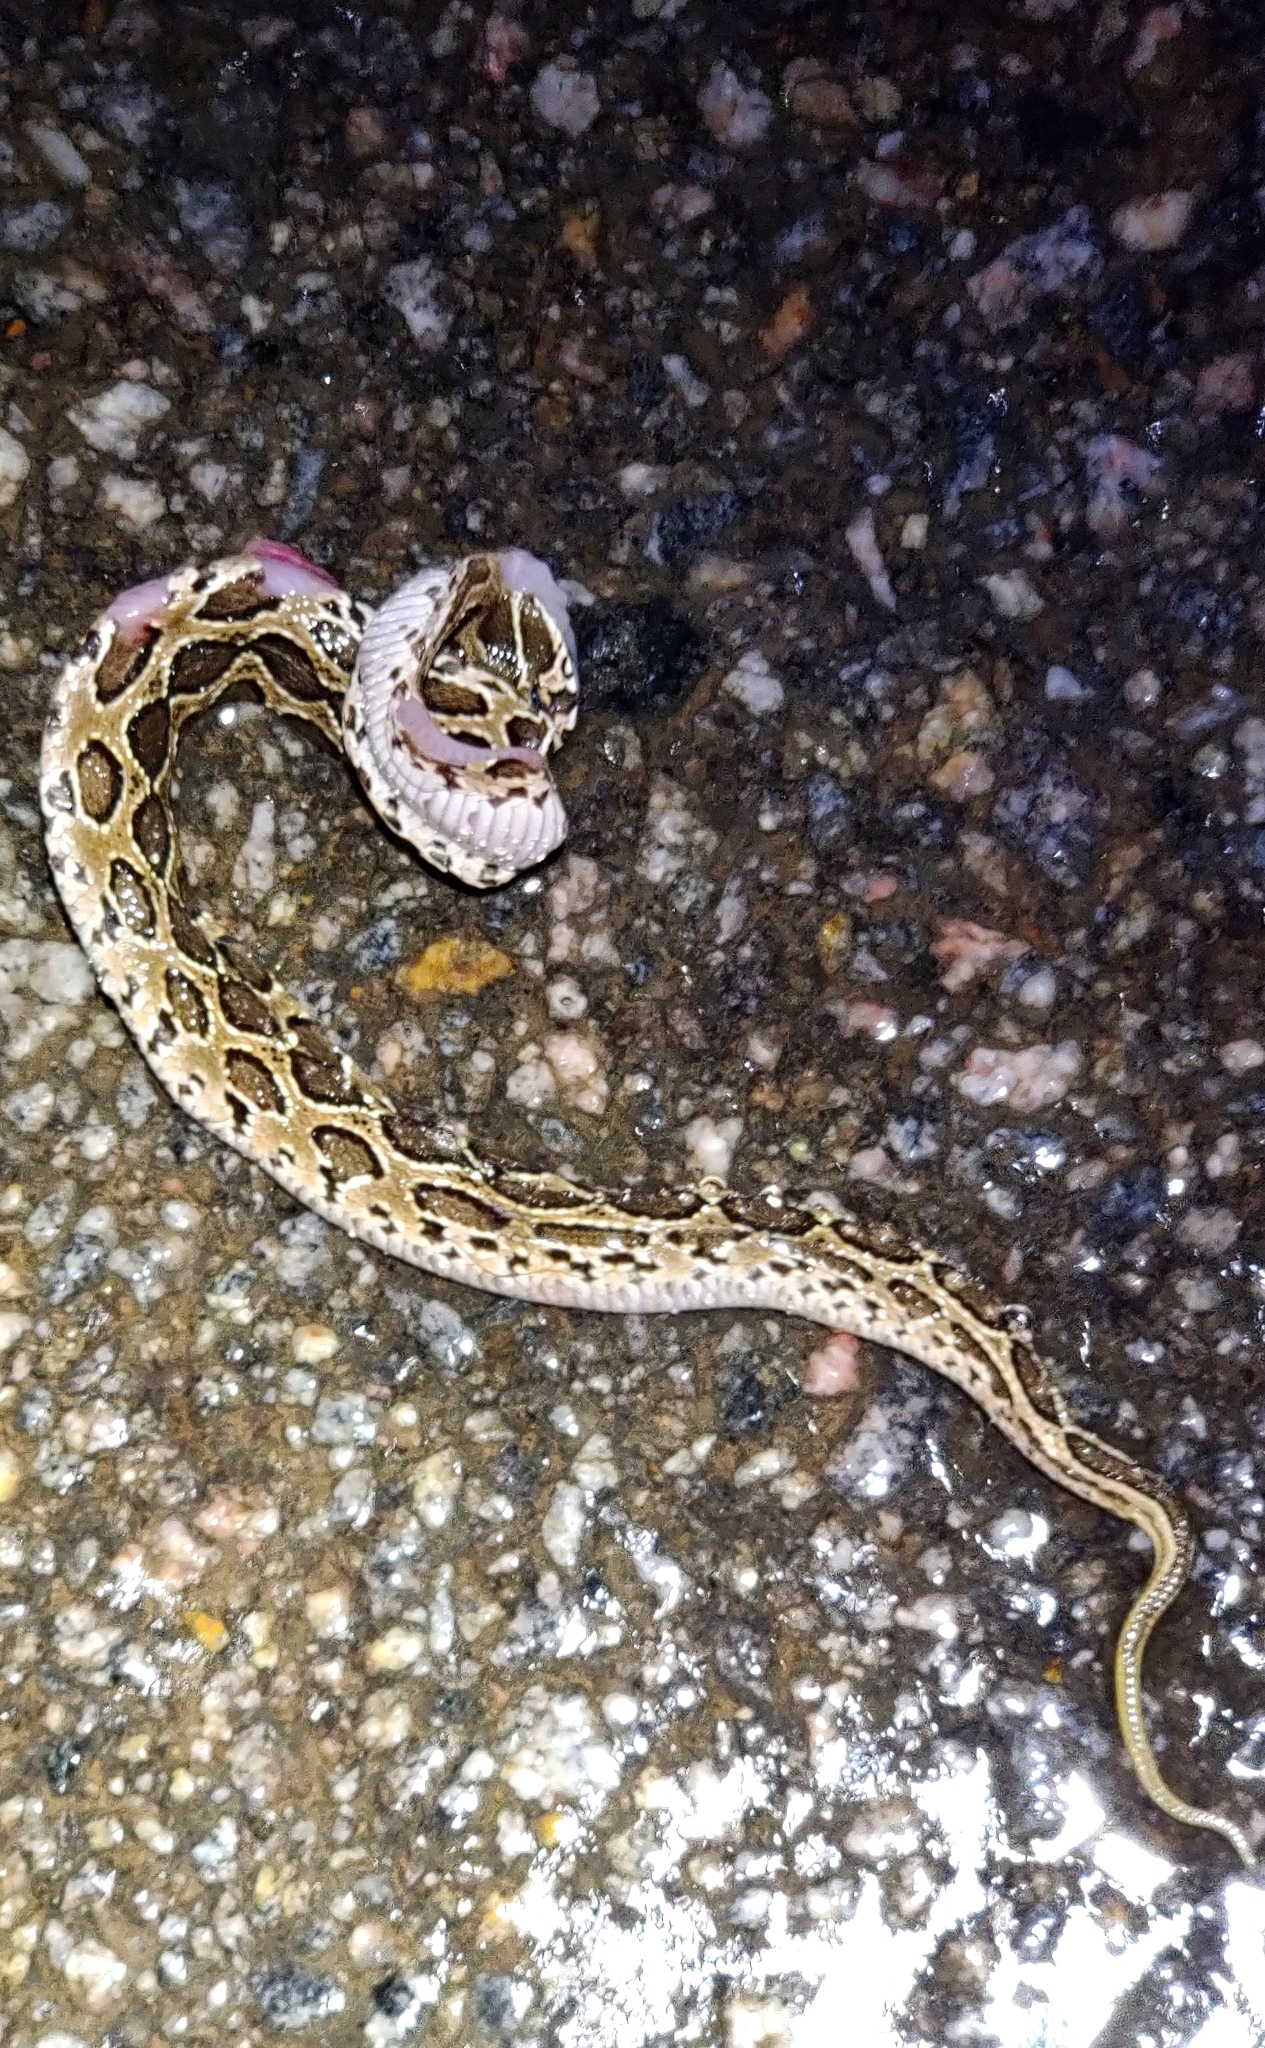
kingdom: Animalia
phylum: Chordata
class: Squamata
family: Viperidae
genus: Daboia
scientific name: Daboia russelii
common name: Western russel’s viper
